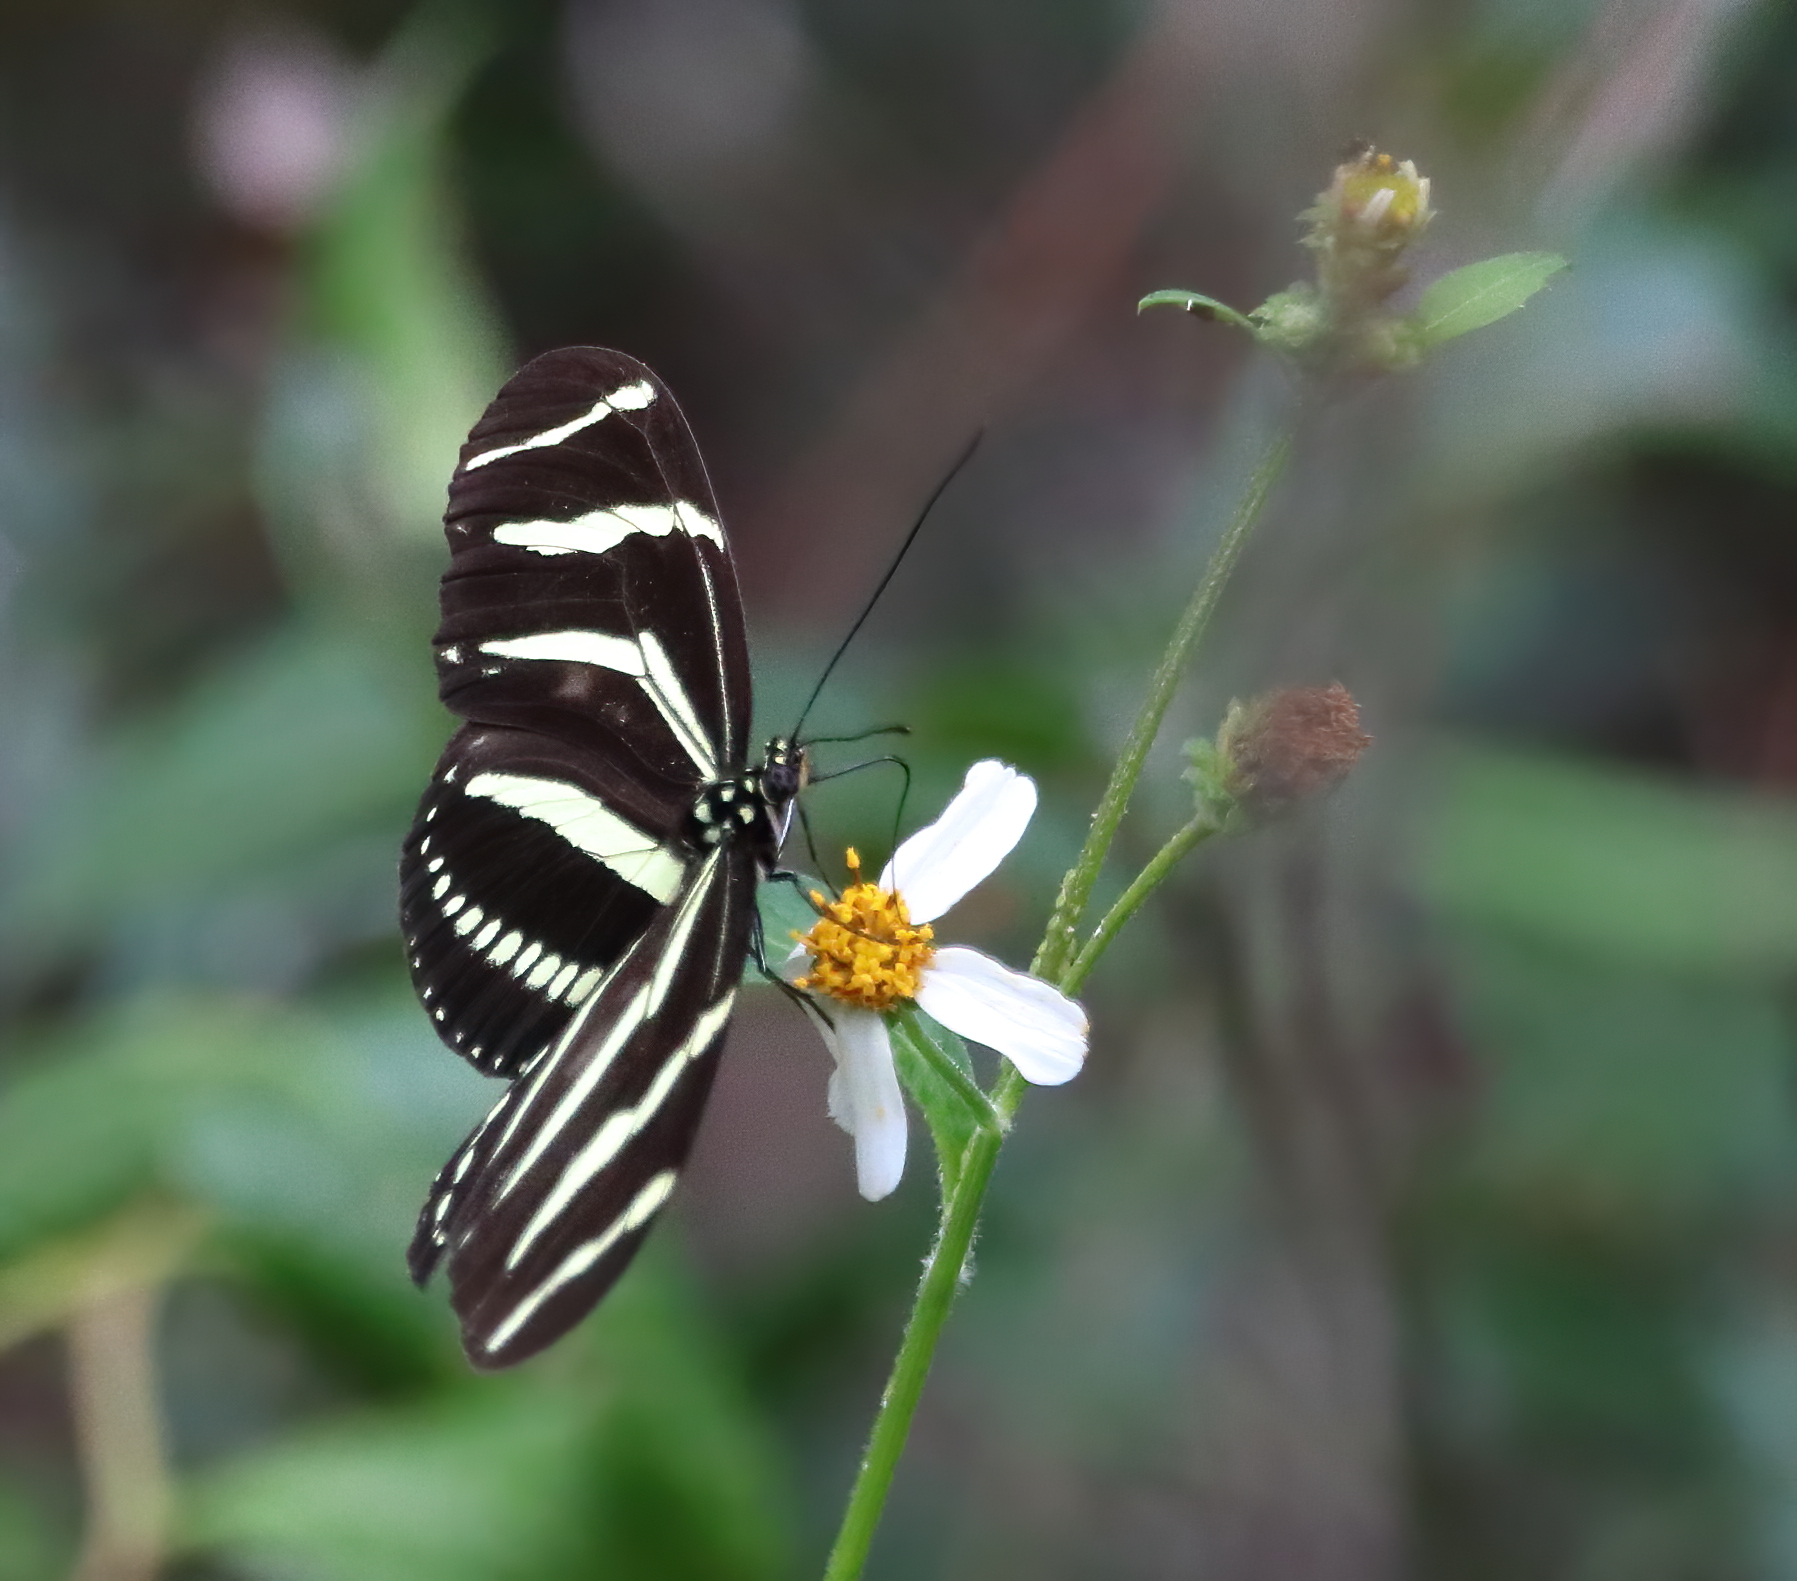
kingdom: Animalia
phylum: Arthropoda
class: Insecta
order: Lepidoptera
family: Nymphalidae
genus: Heliconius
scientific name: Heliconius charithonia
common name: Zebra long wing
